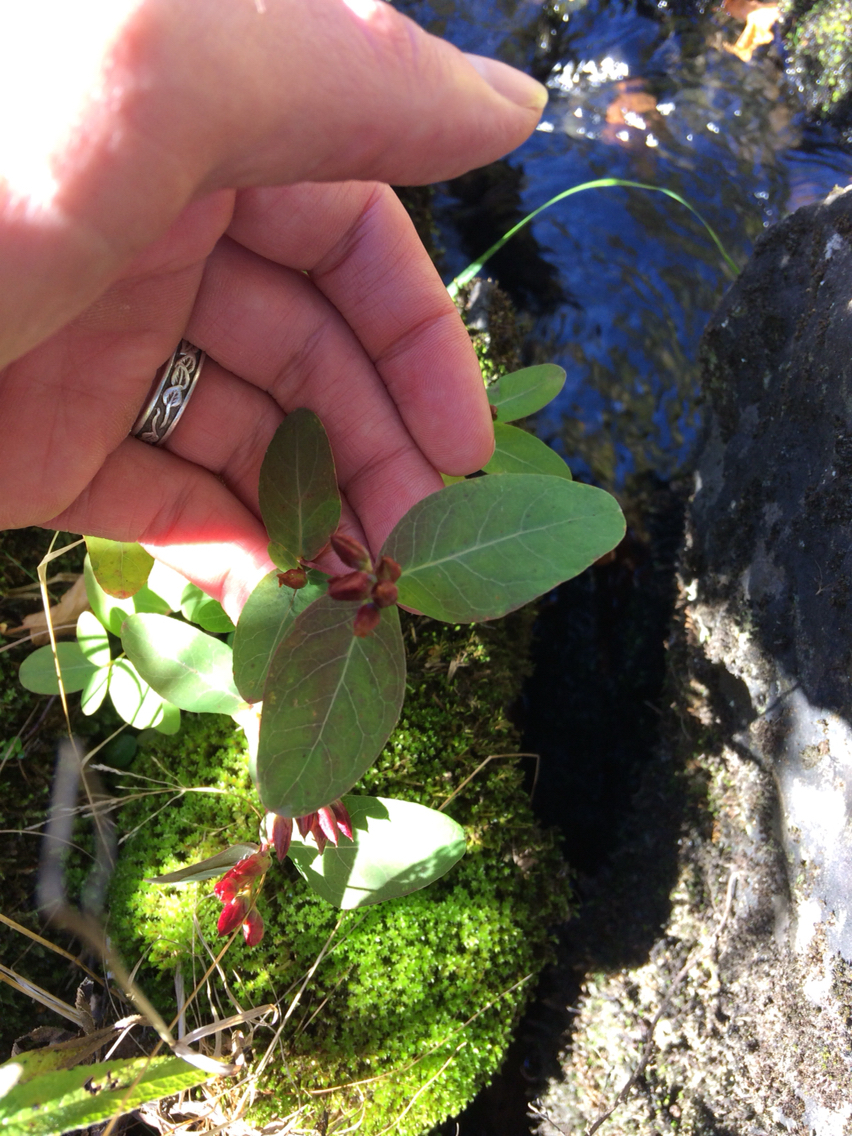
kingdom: Plantae
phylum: Tracheophyta
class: Magnoliopsida
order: Malpighiales
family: Hypericaceae
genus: Triadenum
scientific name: Triadenum virginicum
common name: Marsh st. john's-wort
